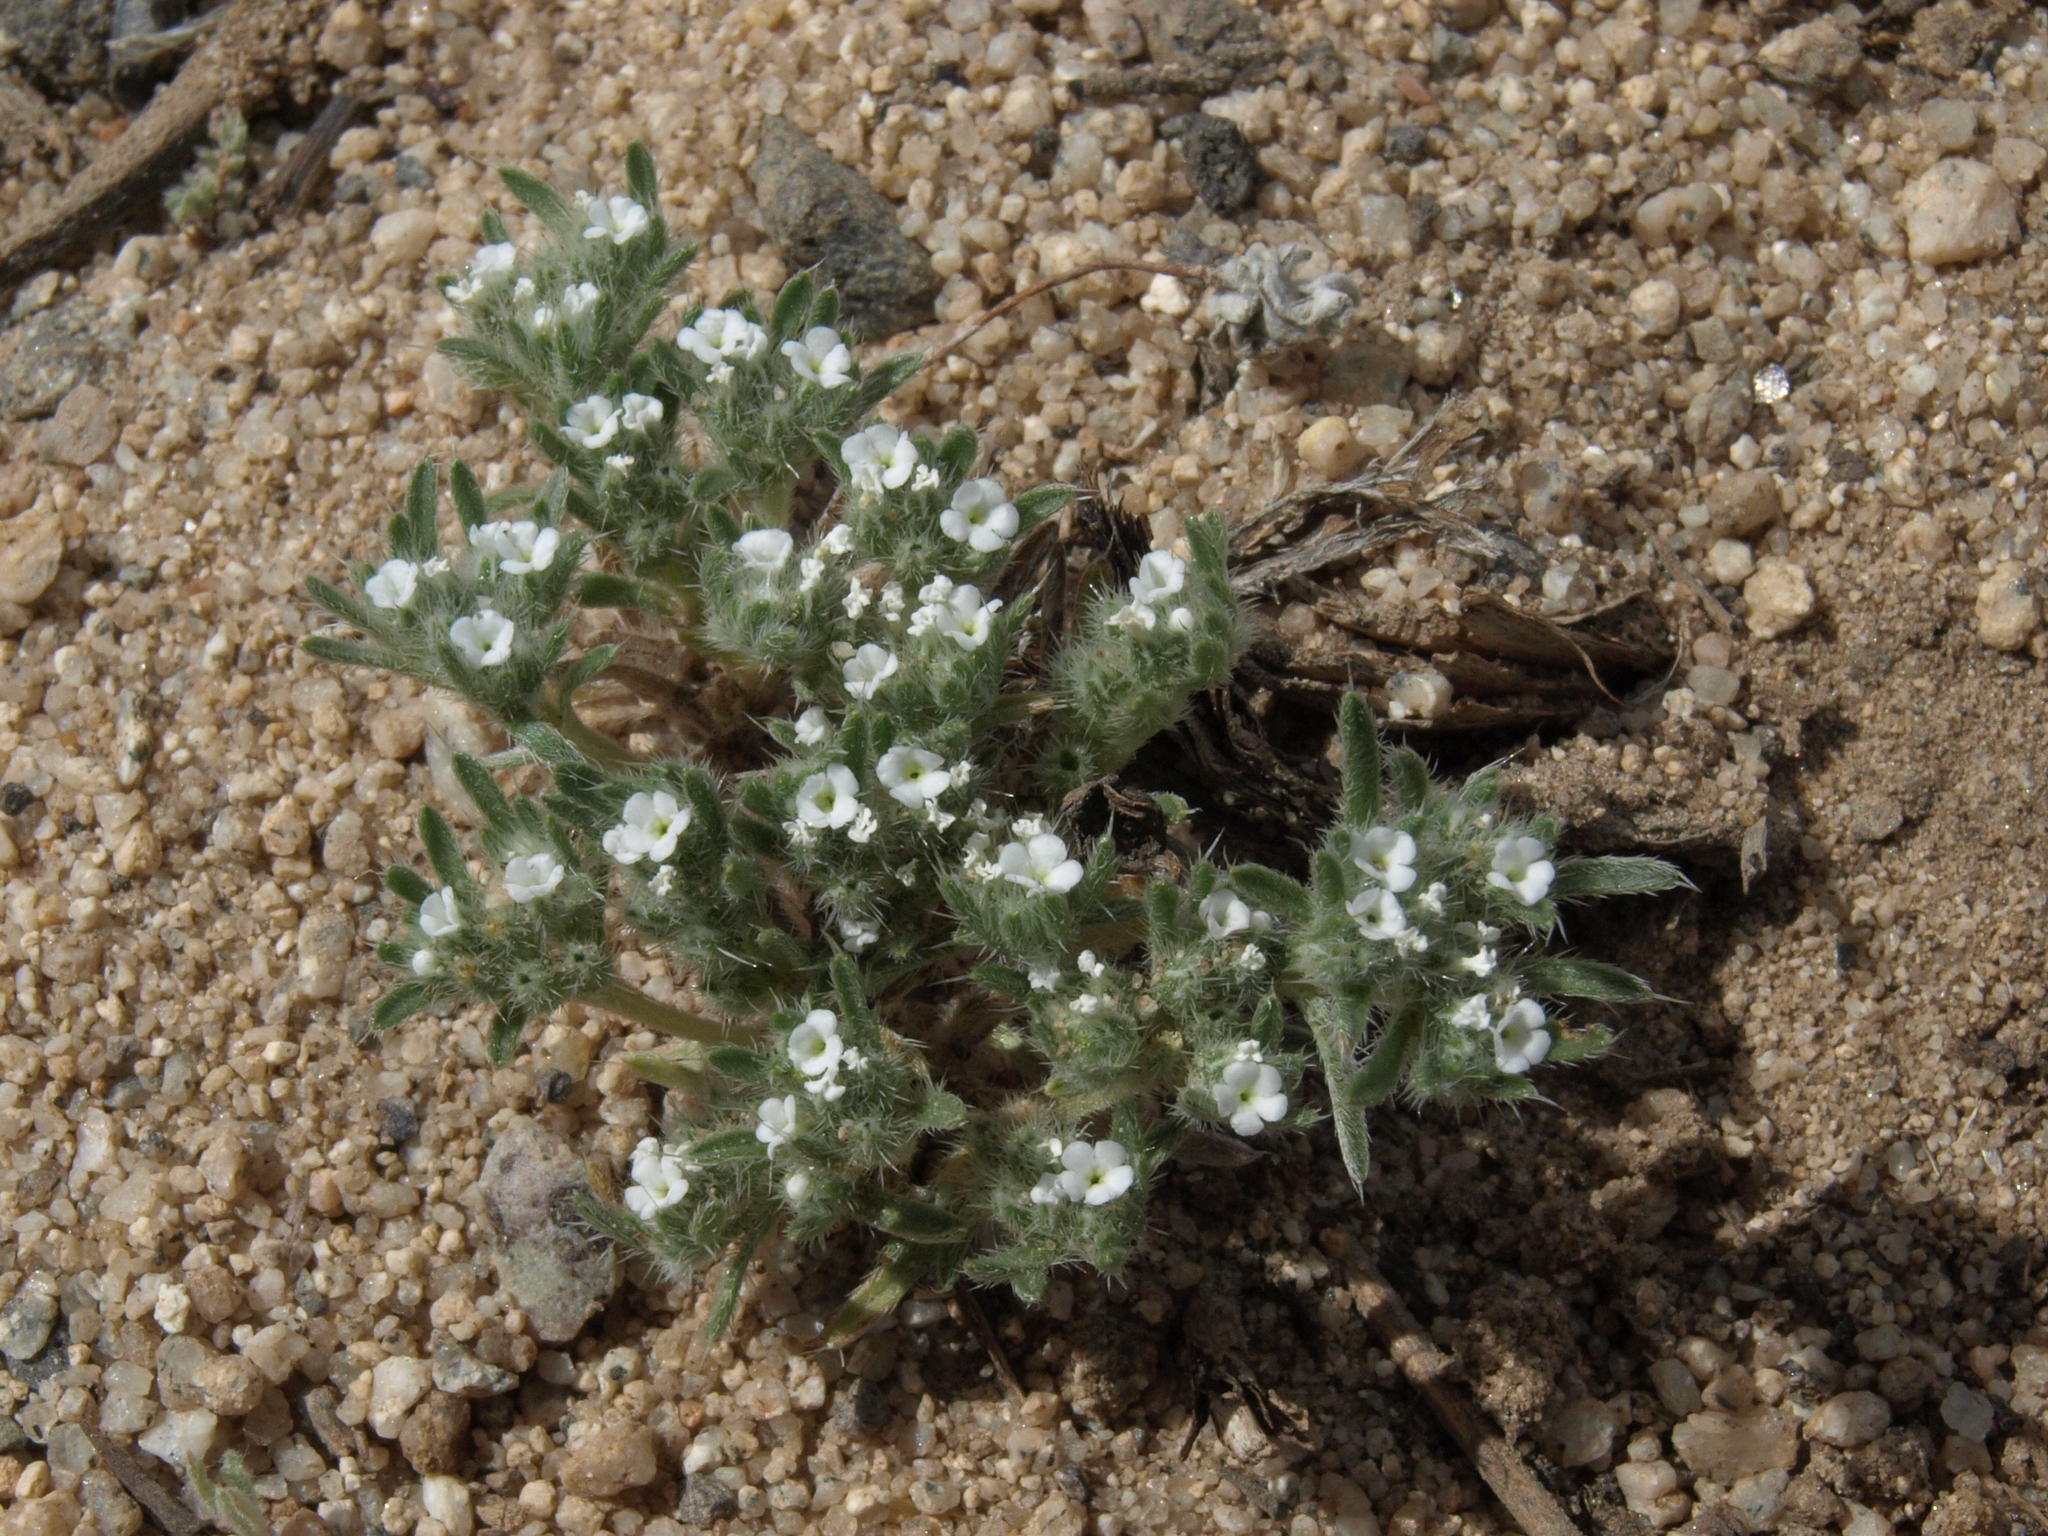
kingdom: Plantae
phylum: Tracheophyta
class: Magnoliopsida
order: Boraginales
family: Boraginaceae
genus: Greeneocharis
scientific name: Greeneocharis circumscissa
